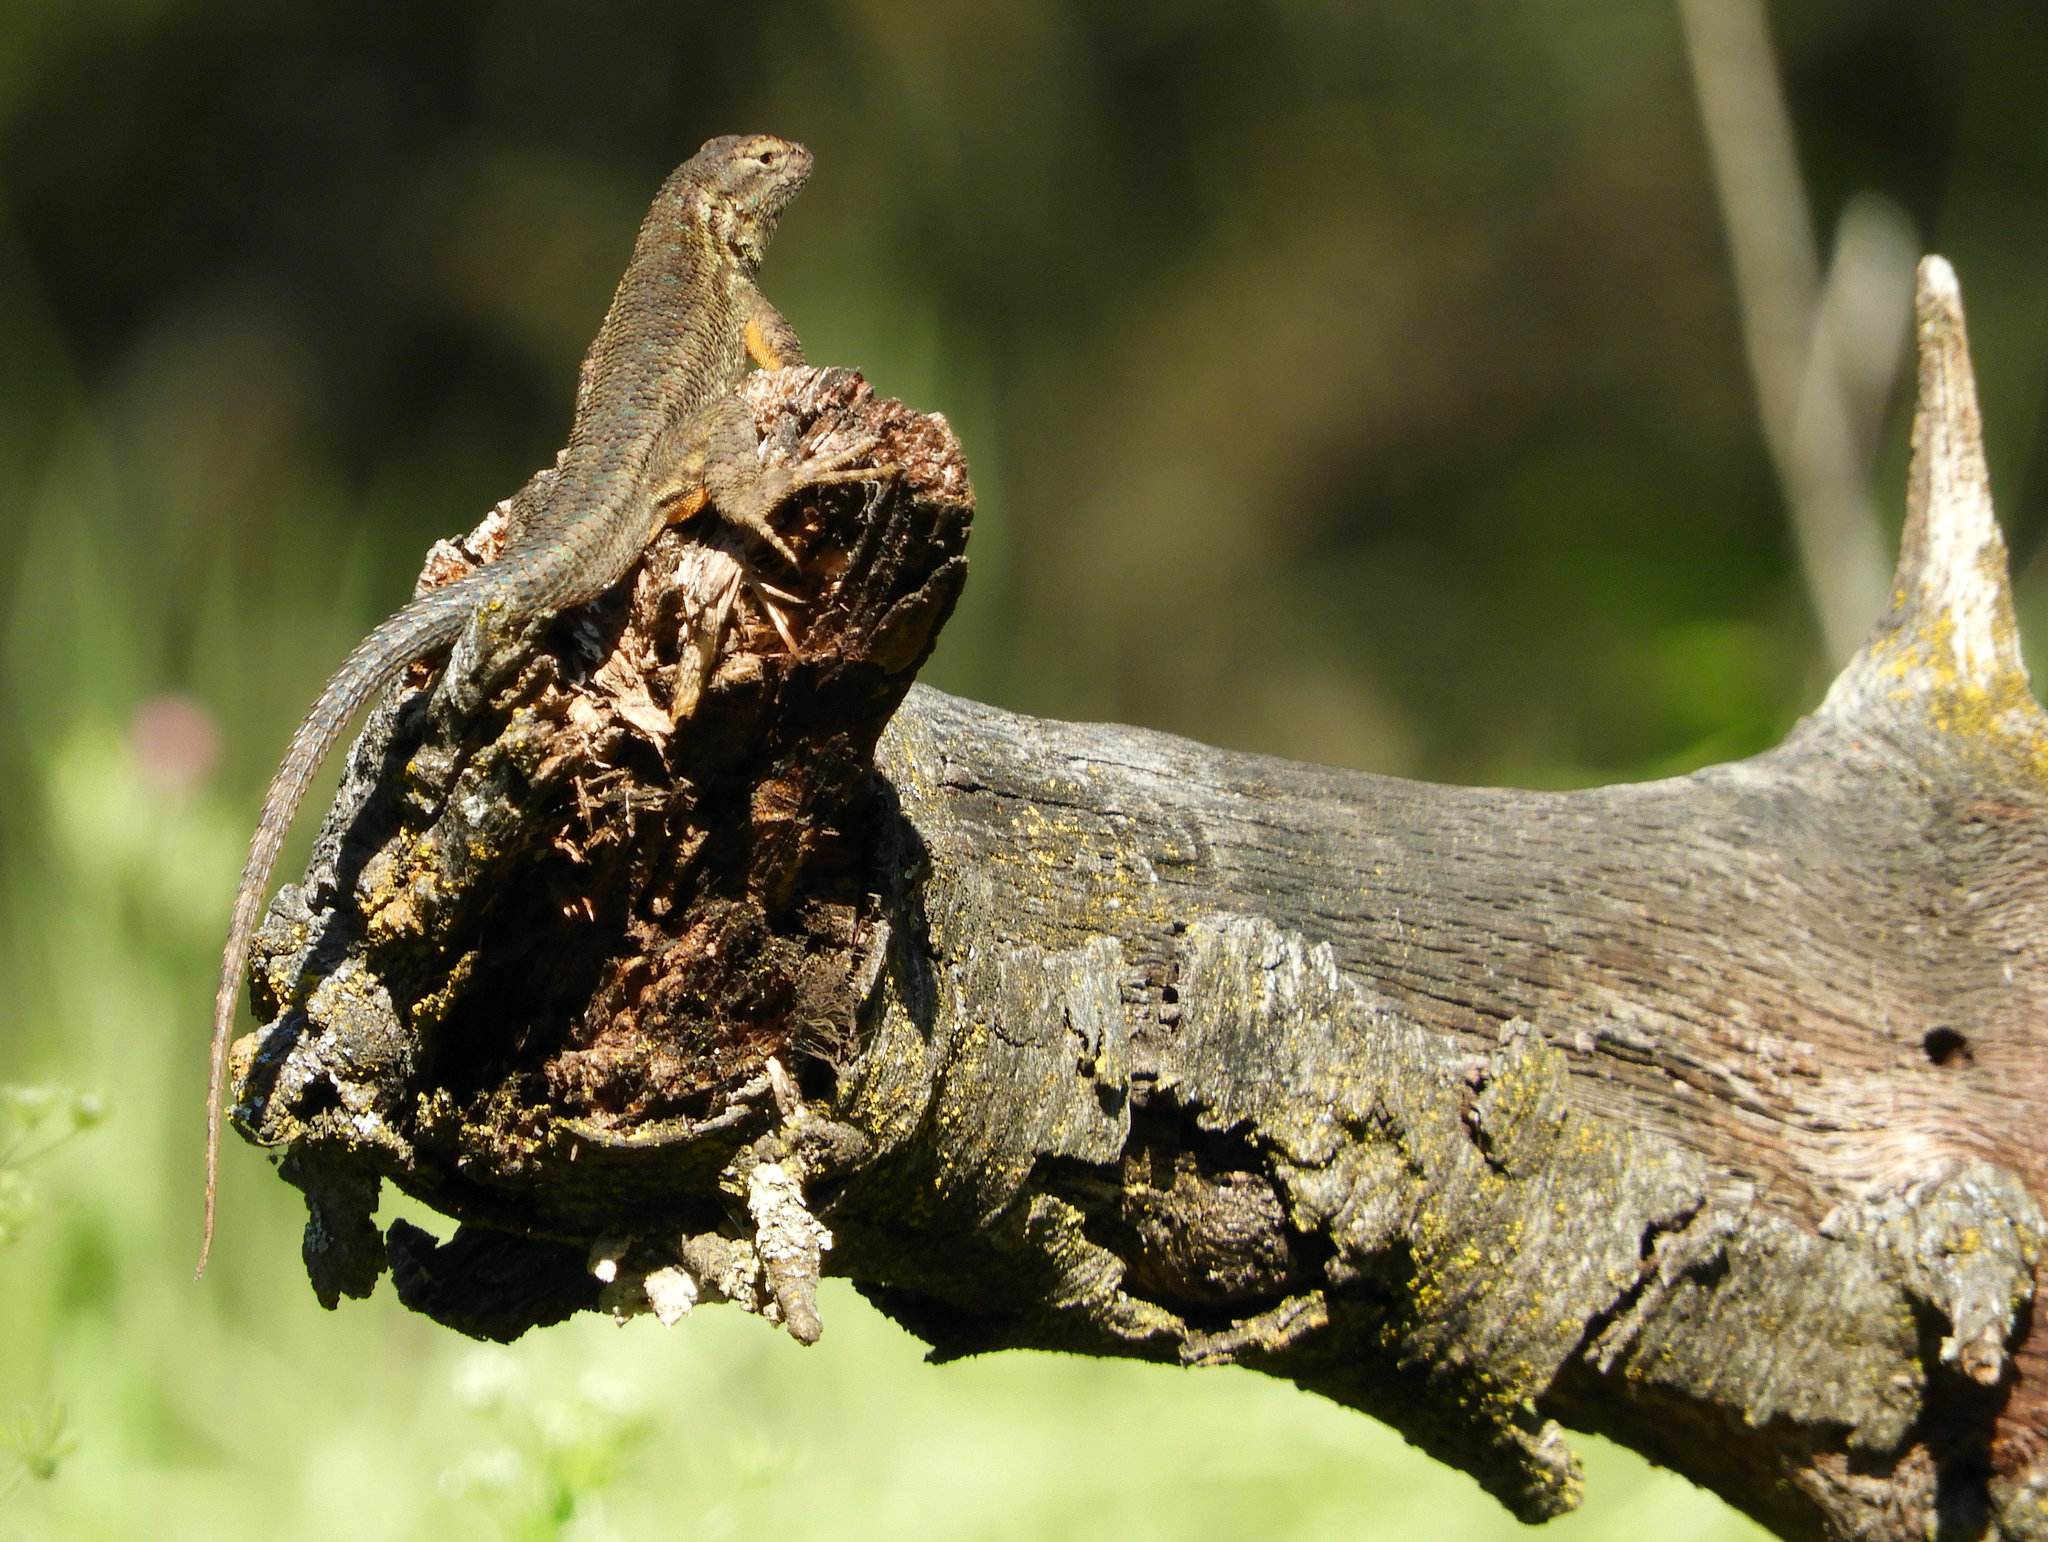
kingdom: Animalia
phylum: Chordata
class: Squamata
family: Phrynosomatidae
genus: Sceloporus
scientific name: Sceloporus occidentalis
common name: Western fence lizard
